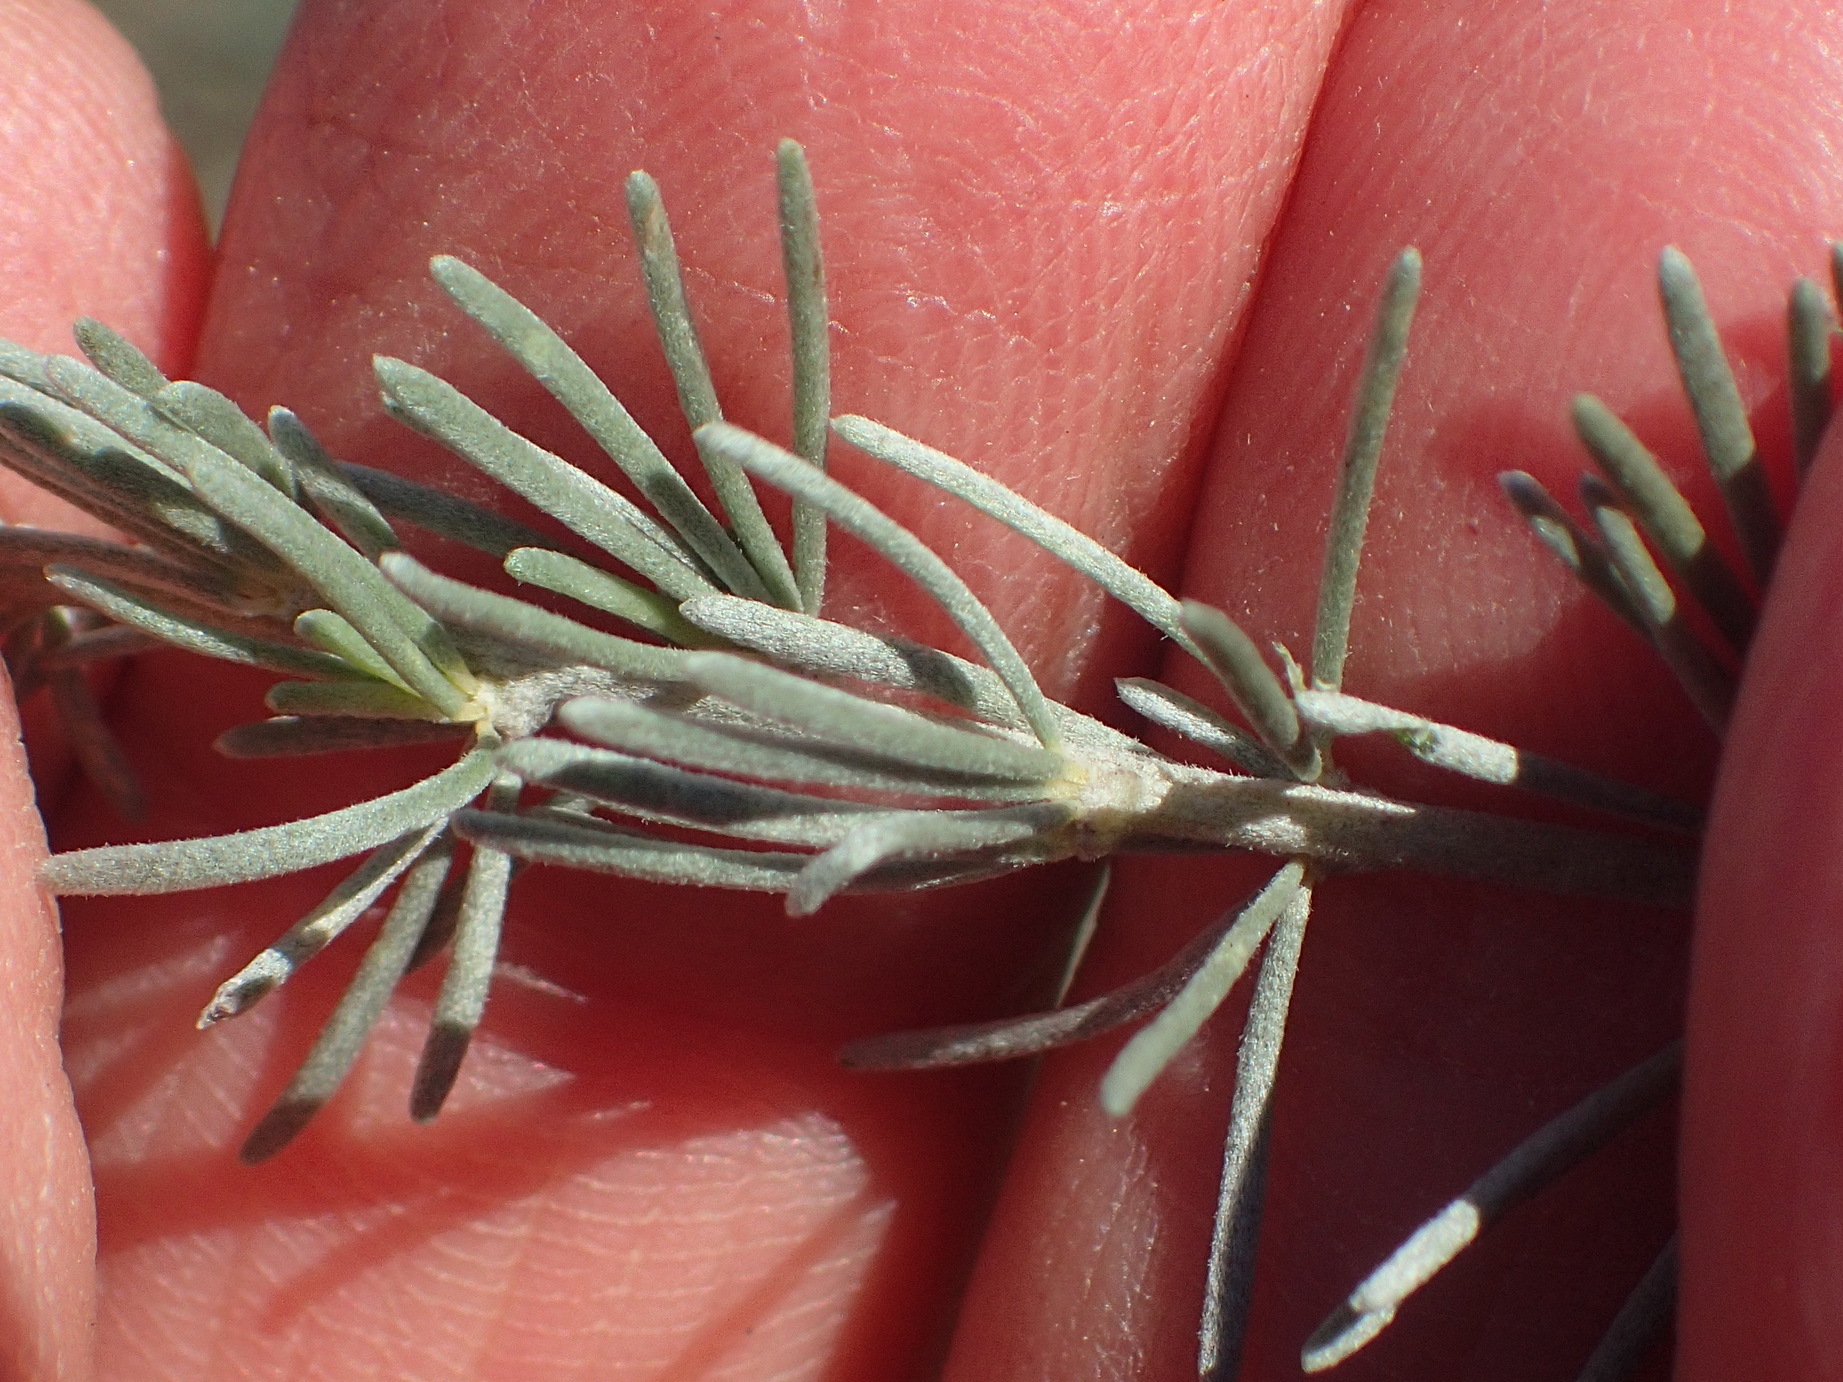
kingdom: Plantae
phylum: Tracheophyta
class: Magnoliopsida
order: Fabales
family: Fabaceae
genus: Aspalathus
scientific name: Aspalathus cinerascens
